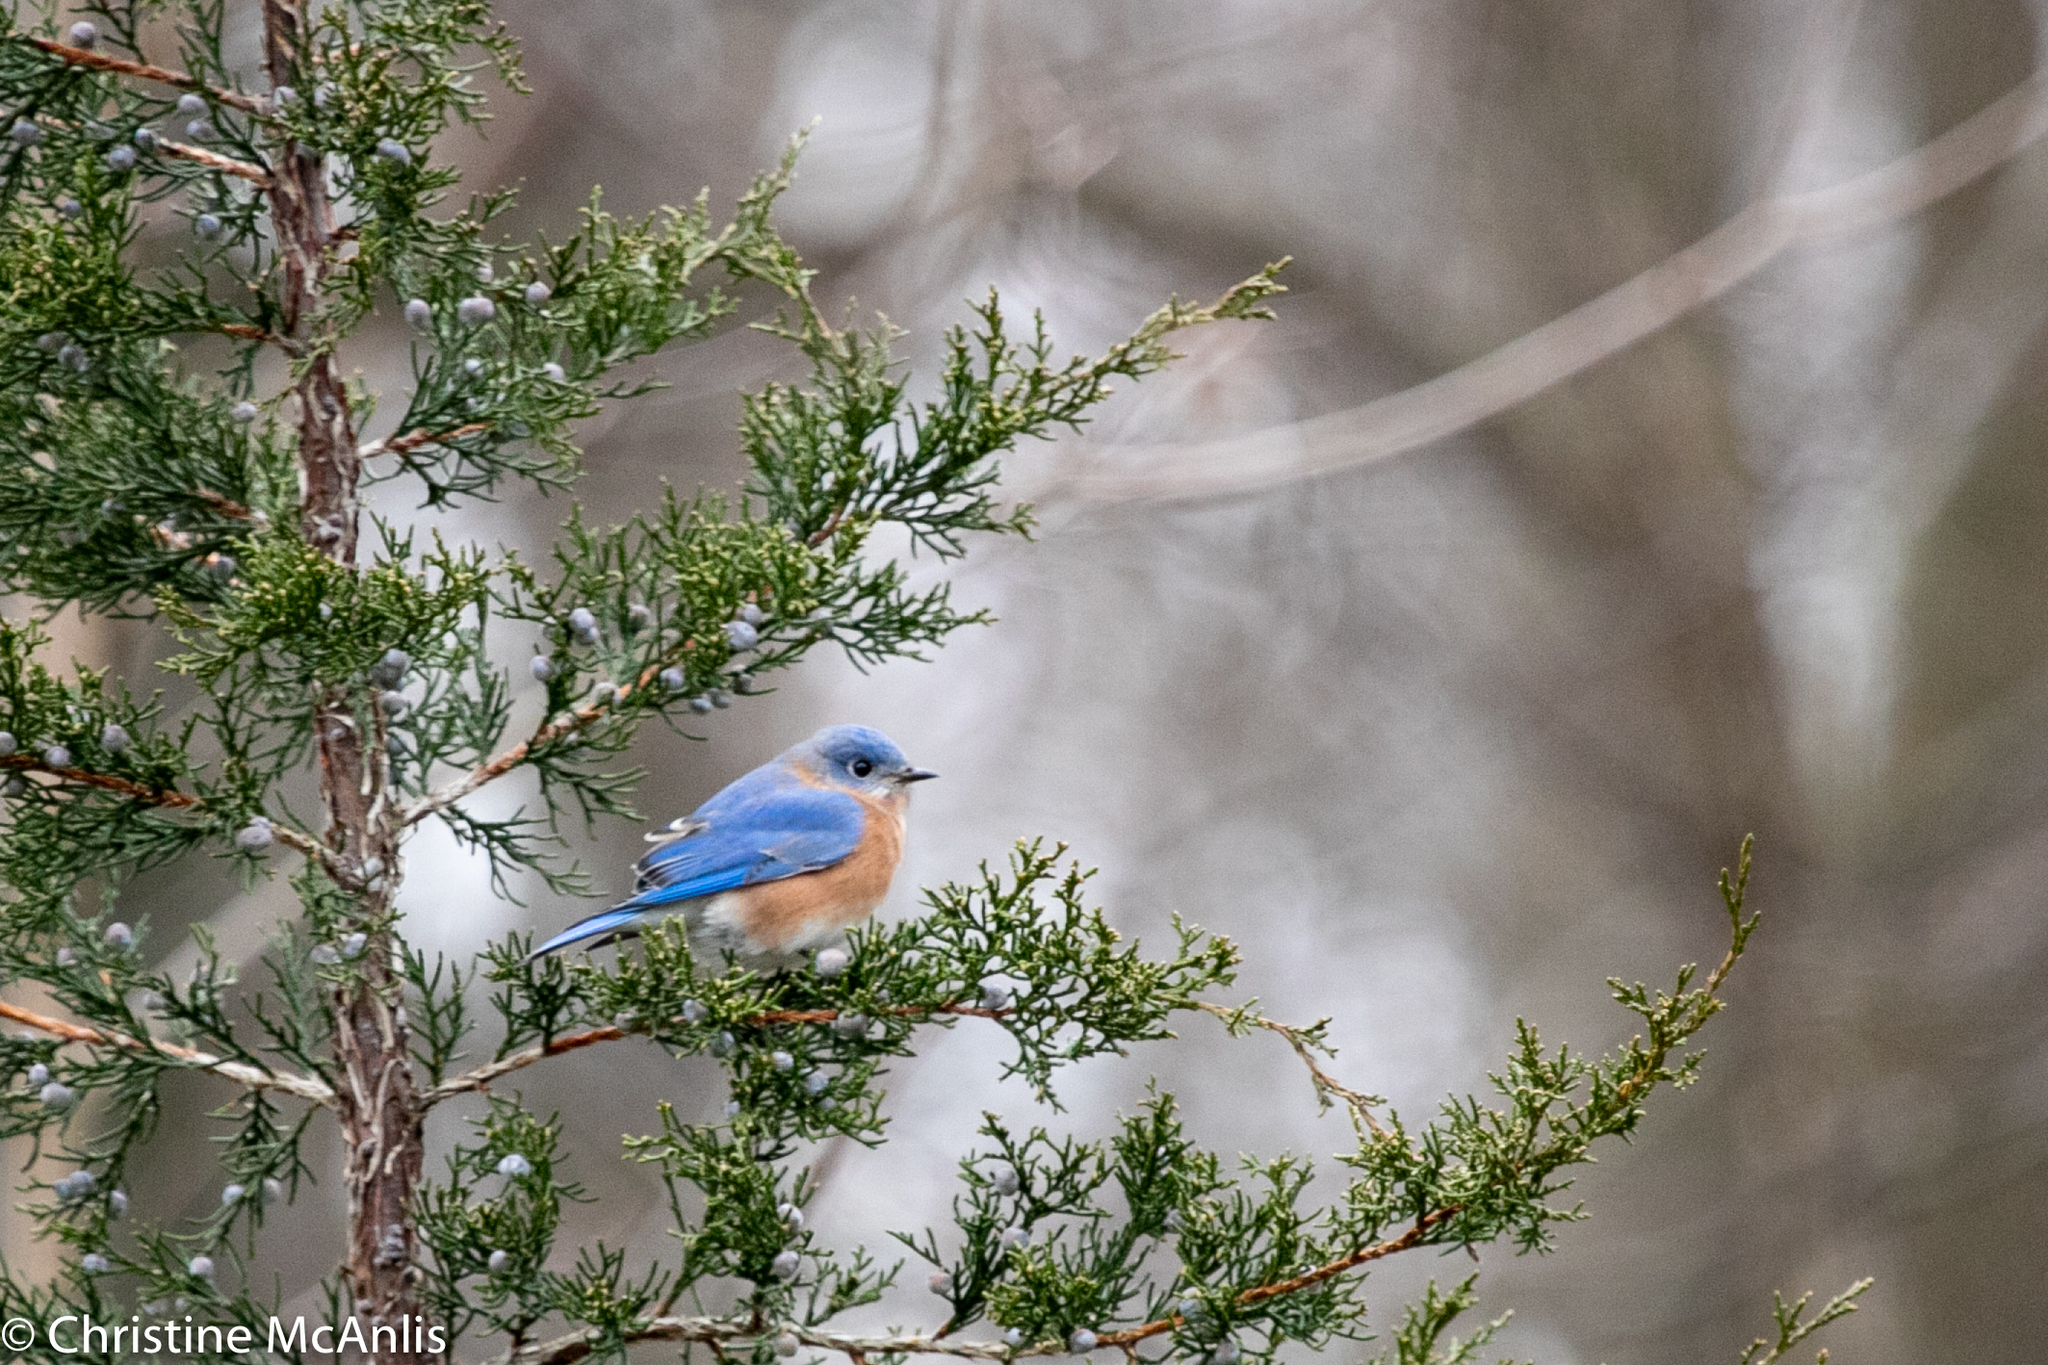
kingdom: Animalia
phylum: Chordata
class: Aves
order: Passeriformes
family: Turdidae
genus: Sialia
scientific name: Sialia sialis
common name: Eastern bluebird
